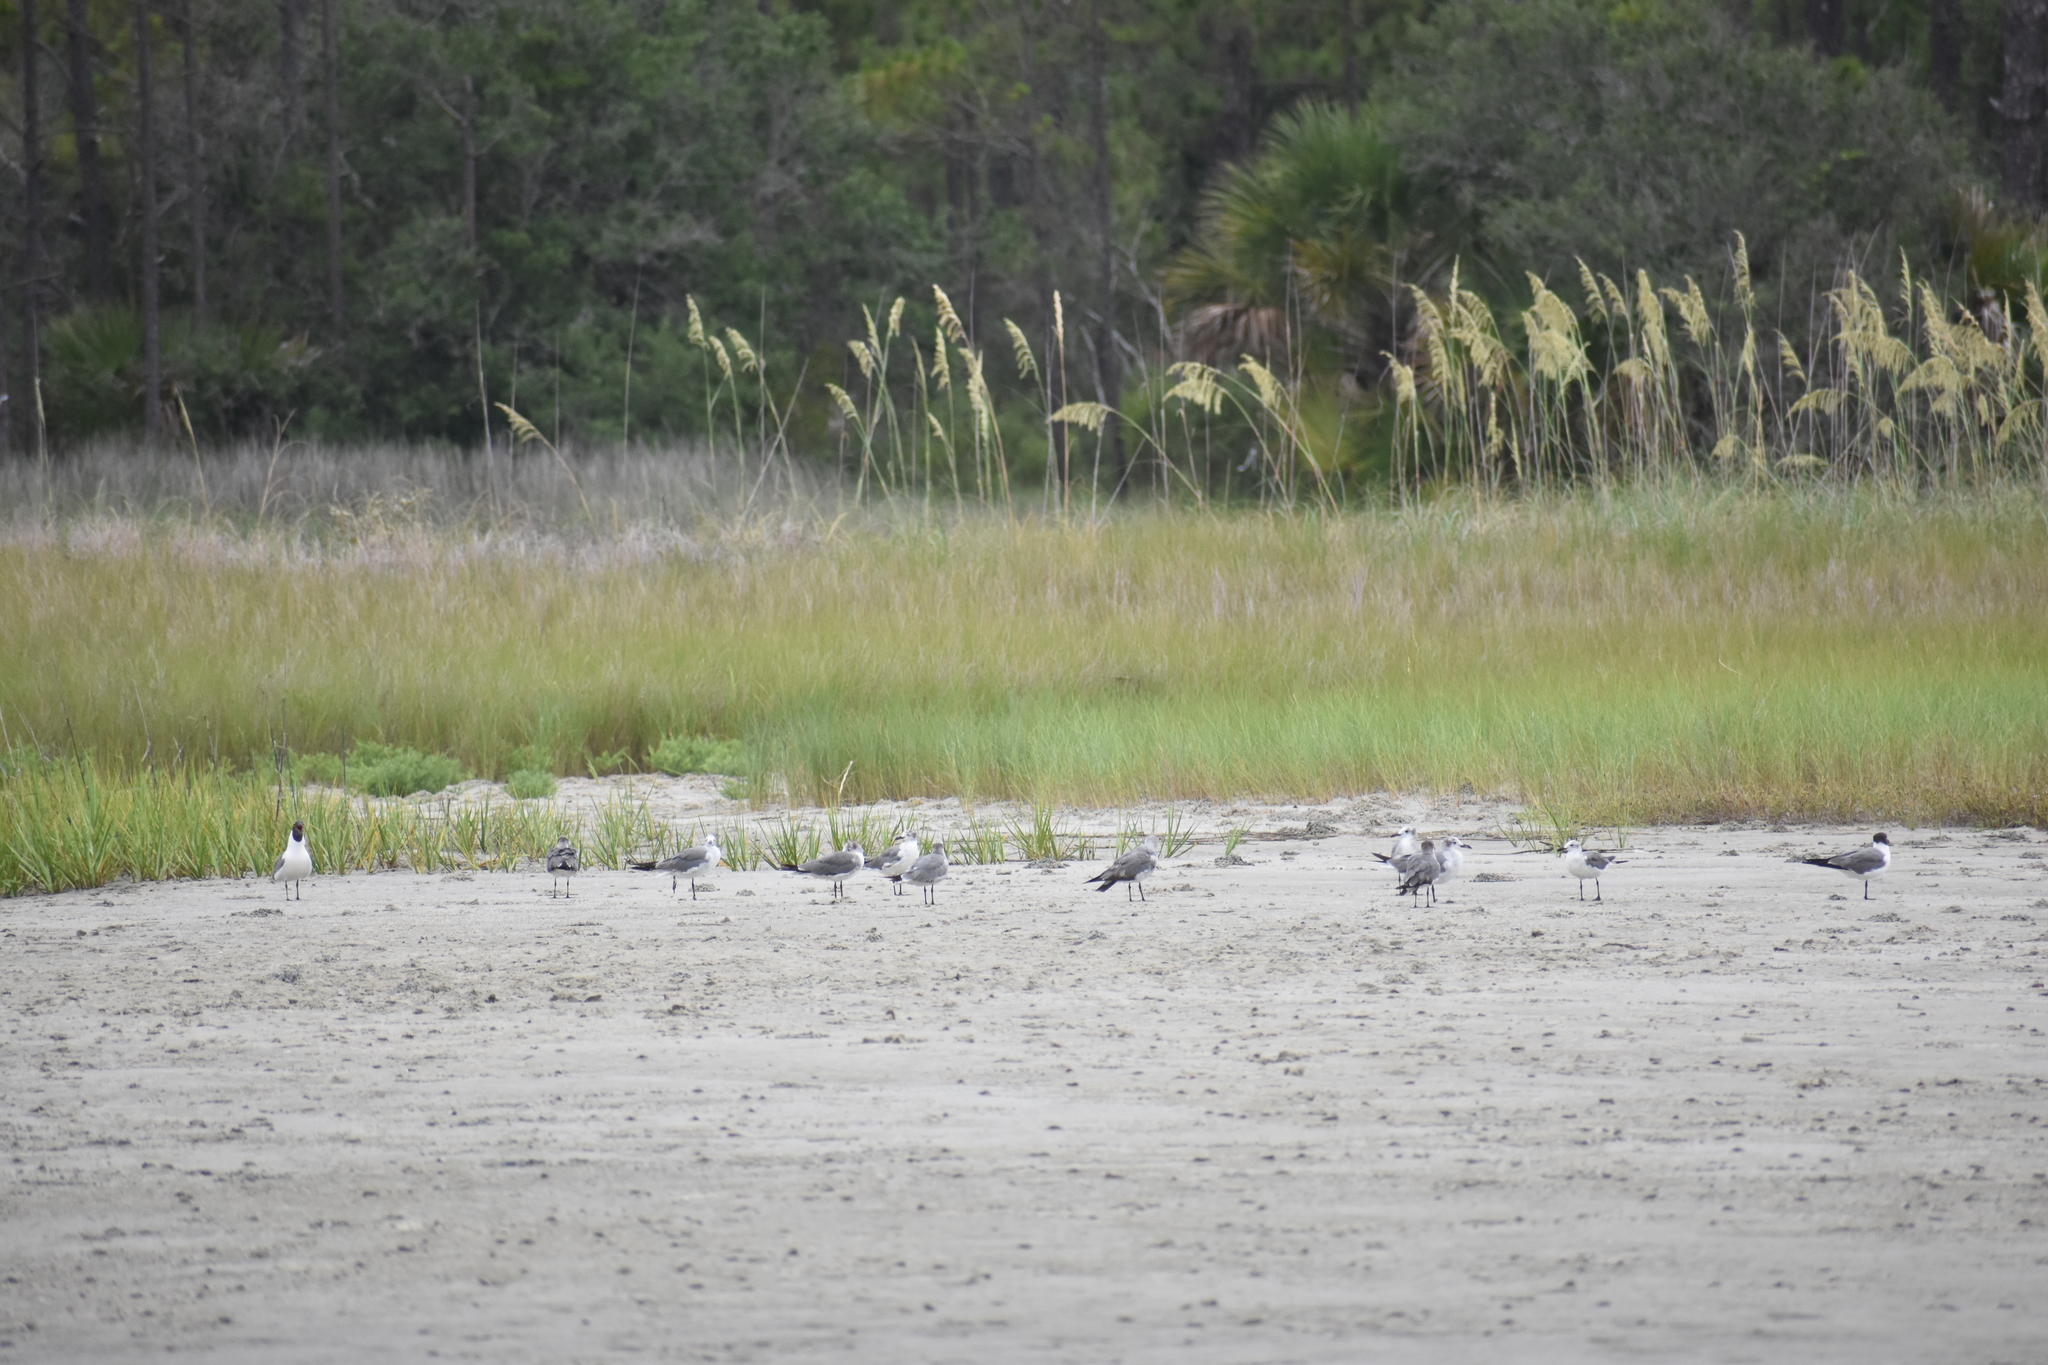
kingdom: Animalia
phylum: Chordata
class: Aves
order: Charadriiformes
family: Laridae
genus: Leucophaeus
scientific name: Leucophaeus atricilla
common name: Laughing gull
